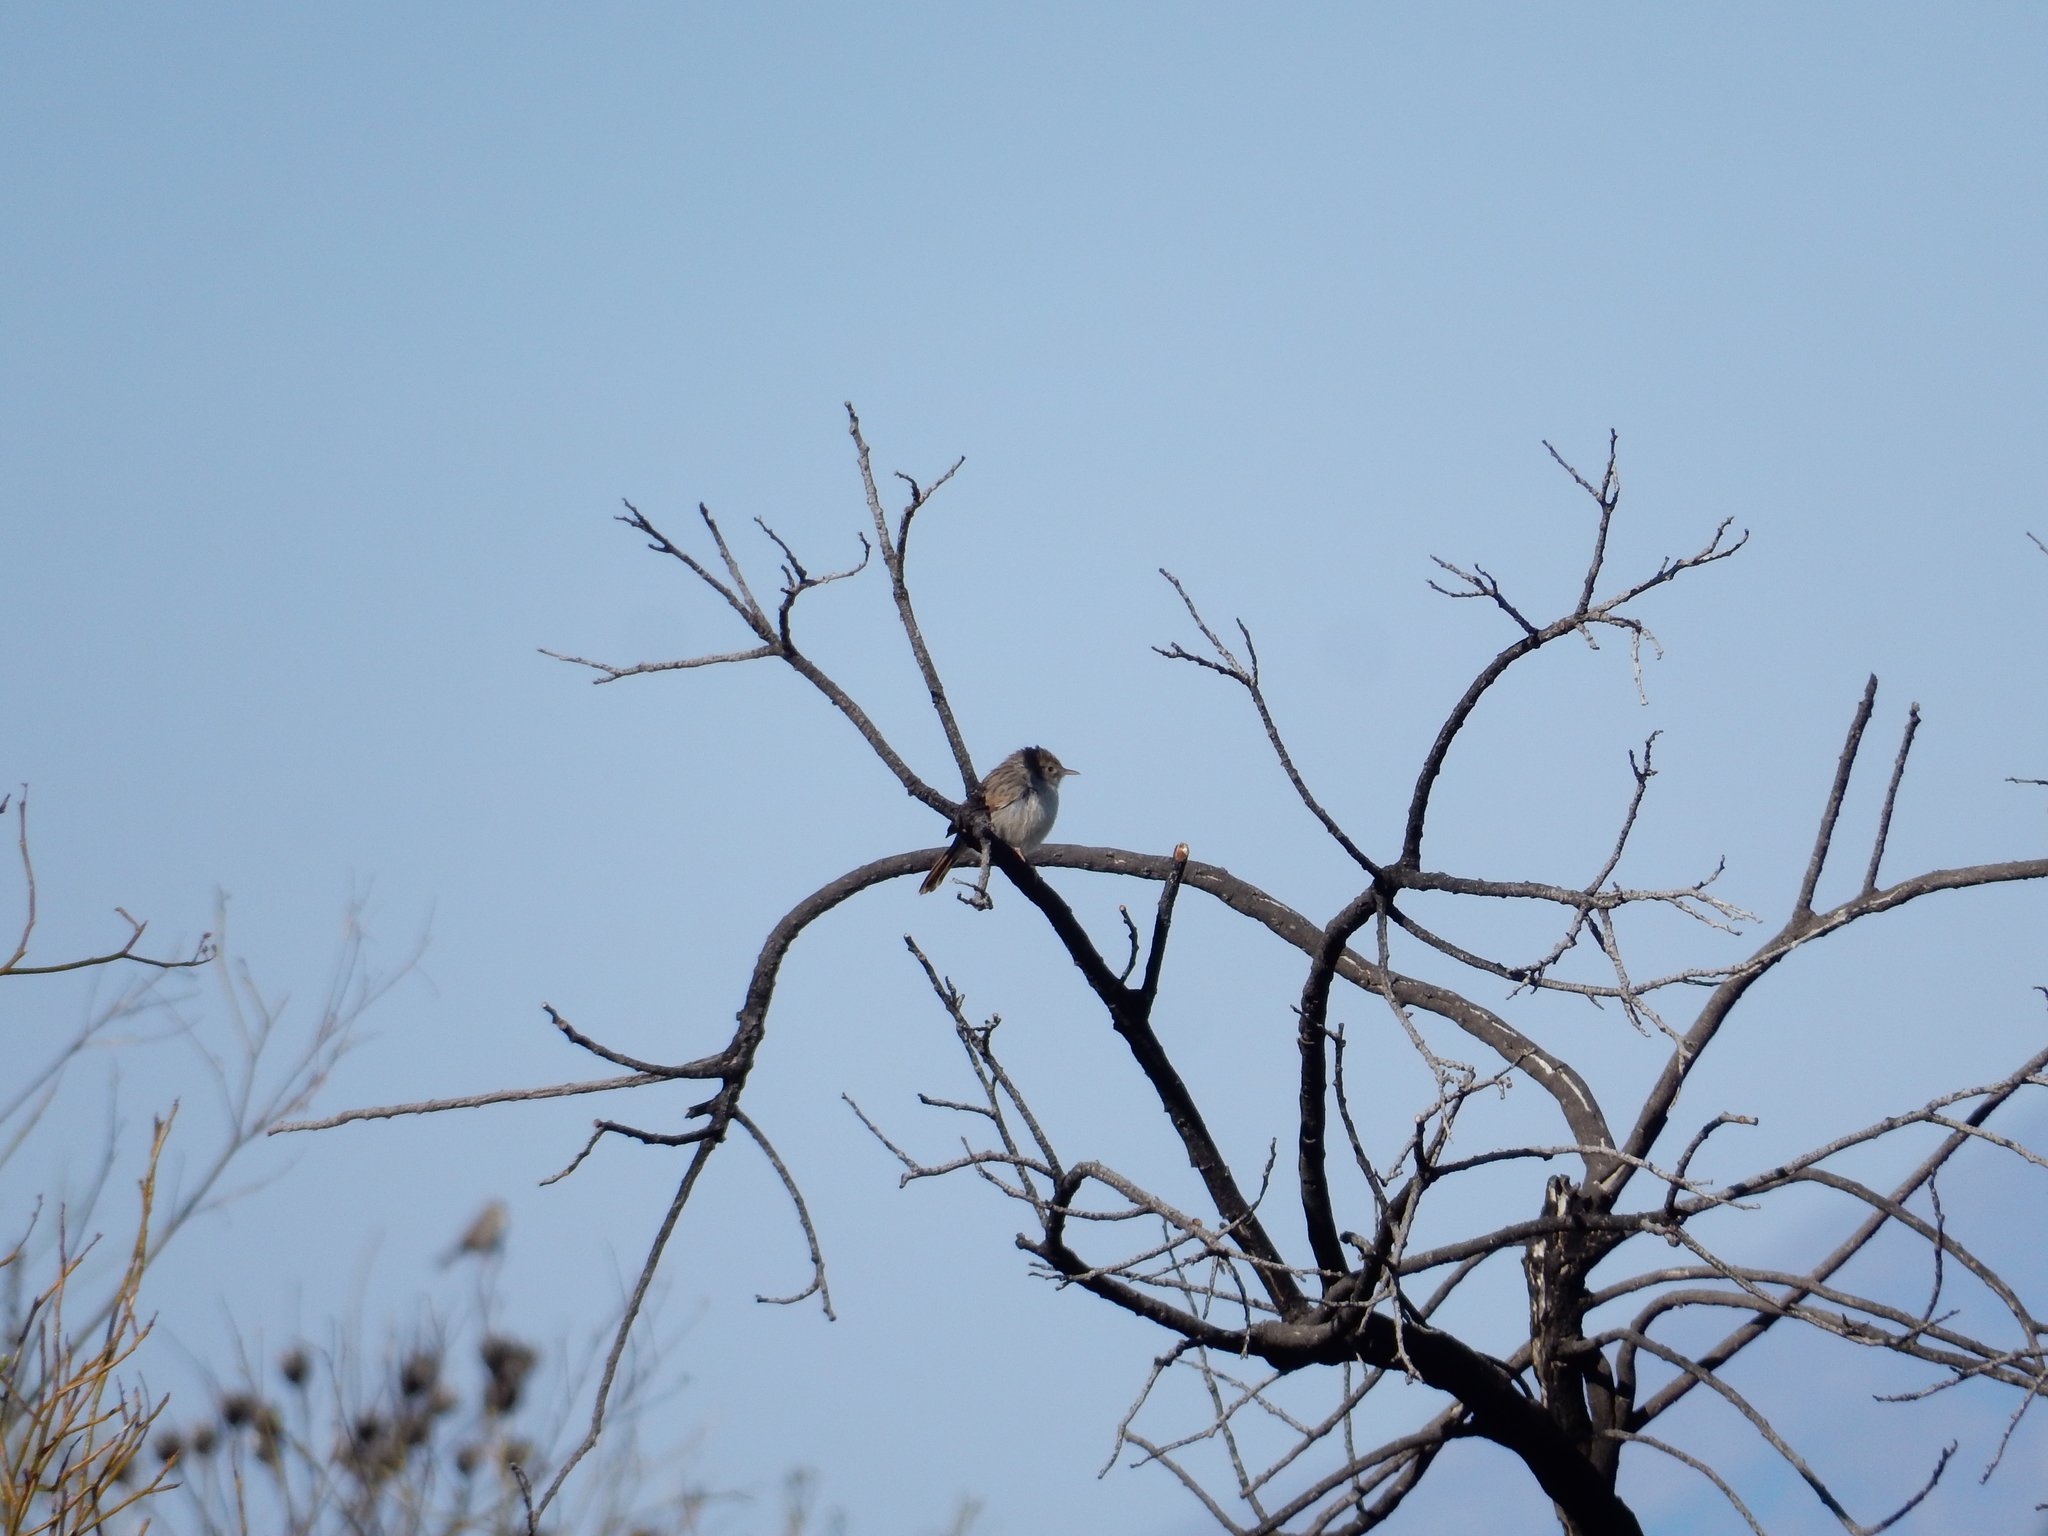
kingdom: Animalia
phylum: Chordata
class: Aves
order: Passeriformes
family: Cisticolidae
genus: Cisticola
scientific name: Cisticola subruficapilla
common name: Grey-backed cisticola
